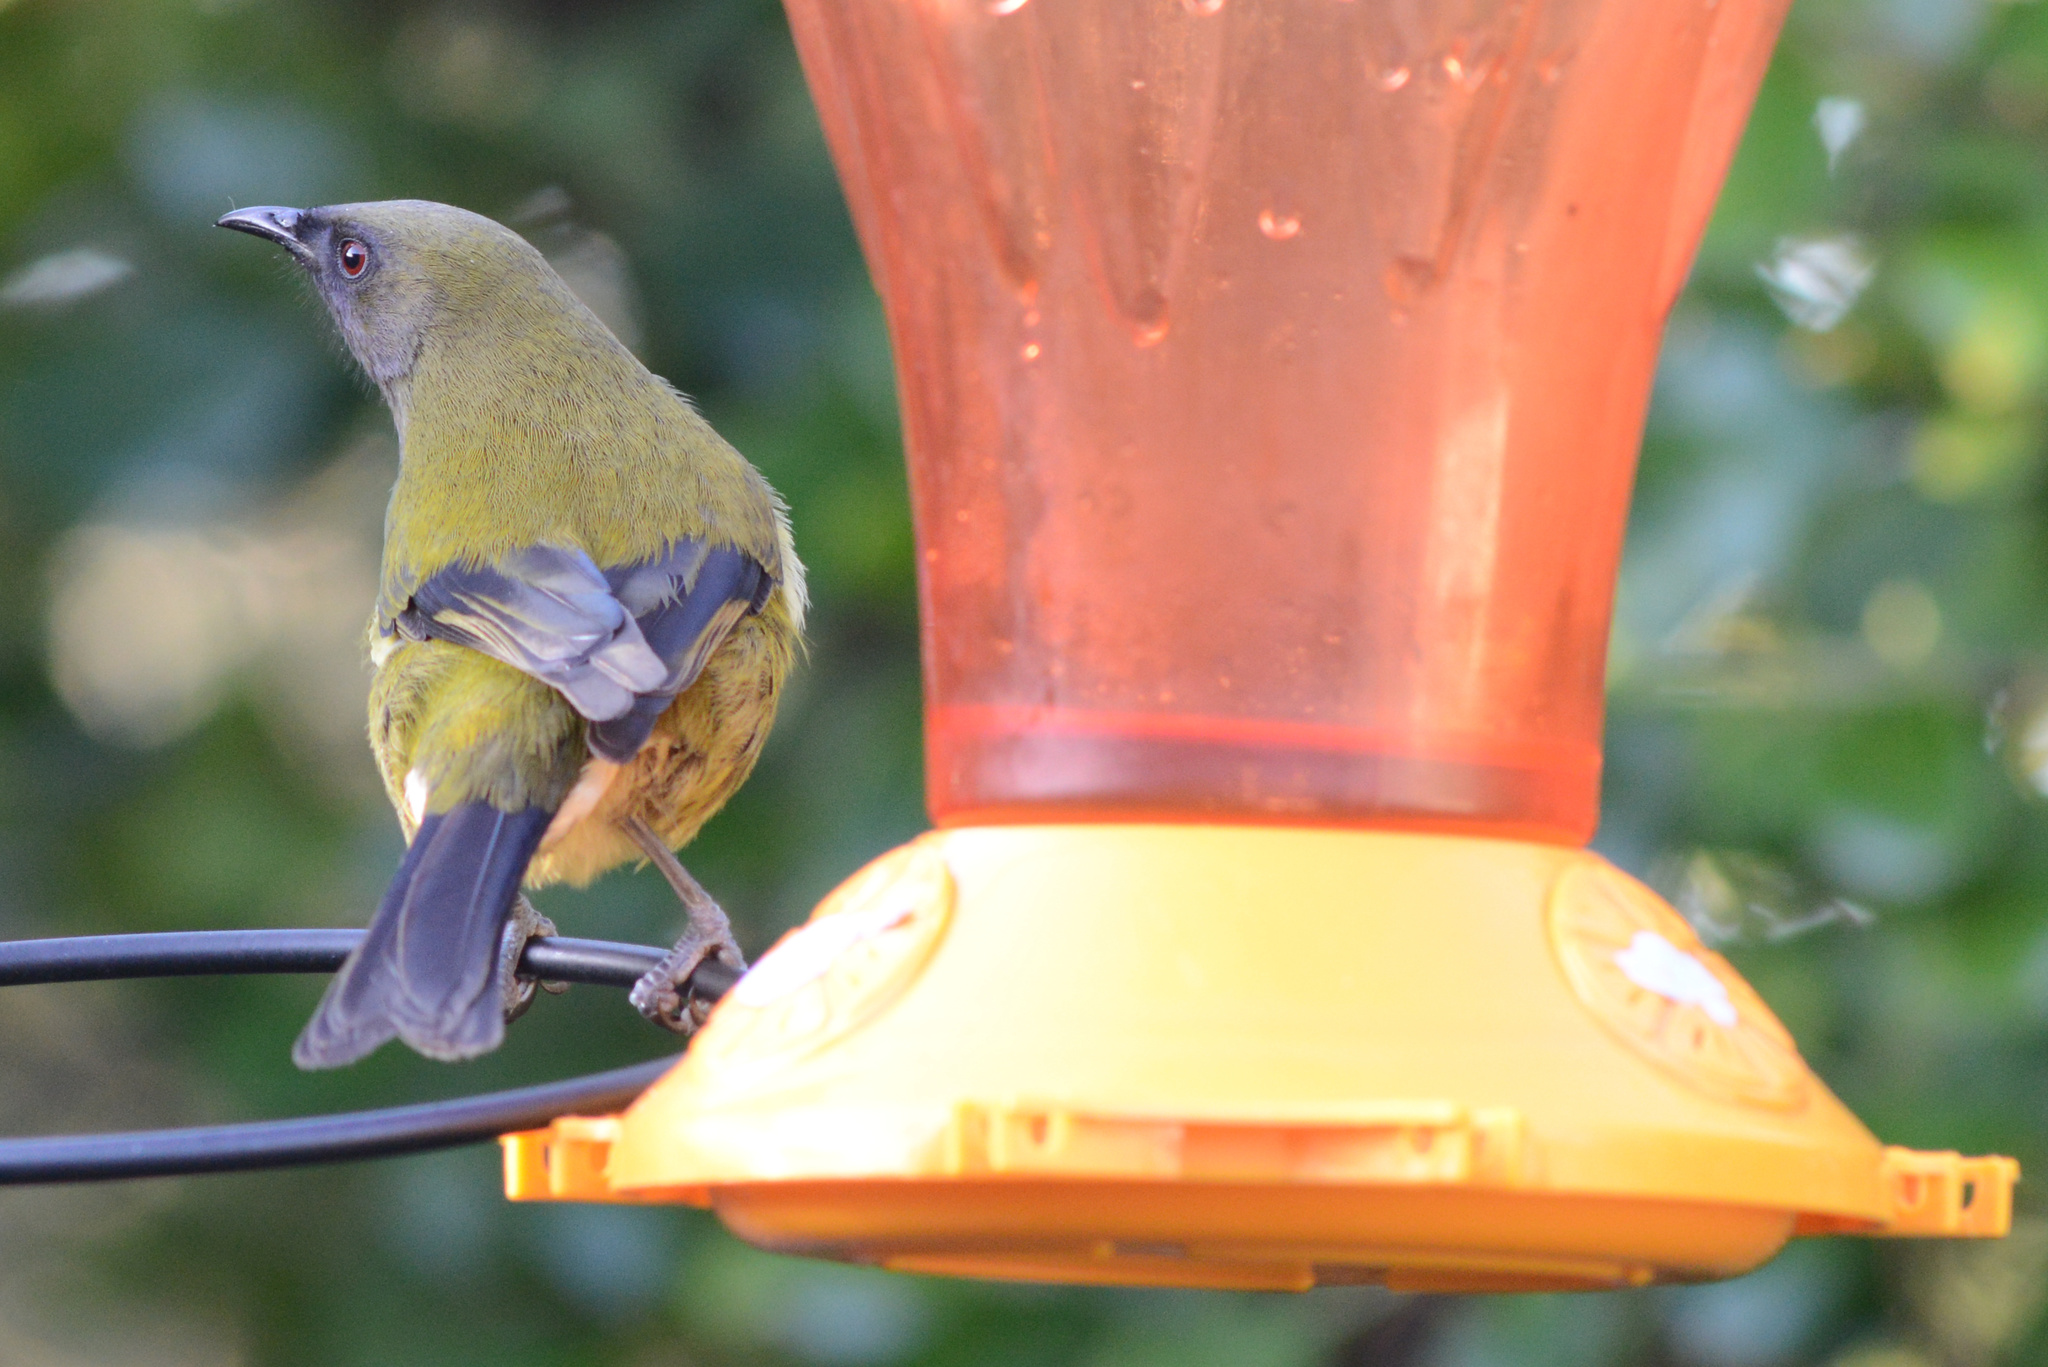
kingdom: Animalia
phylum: Chordata
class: Aves
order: Passeriformes
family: Meliphagidae
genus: Anthornis
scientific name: Anthornis melanura
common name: New zealand bellbird
